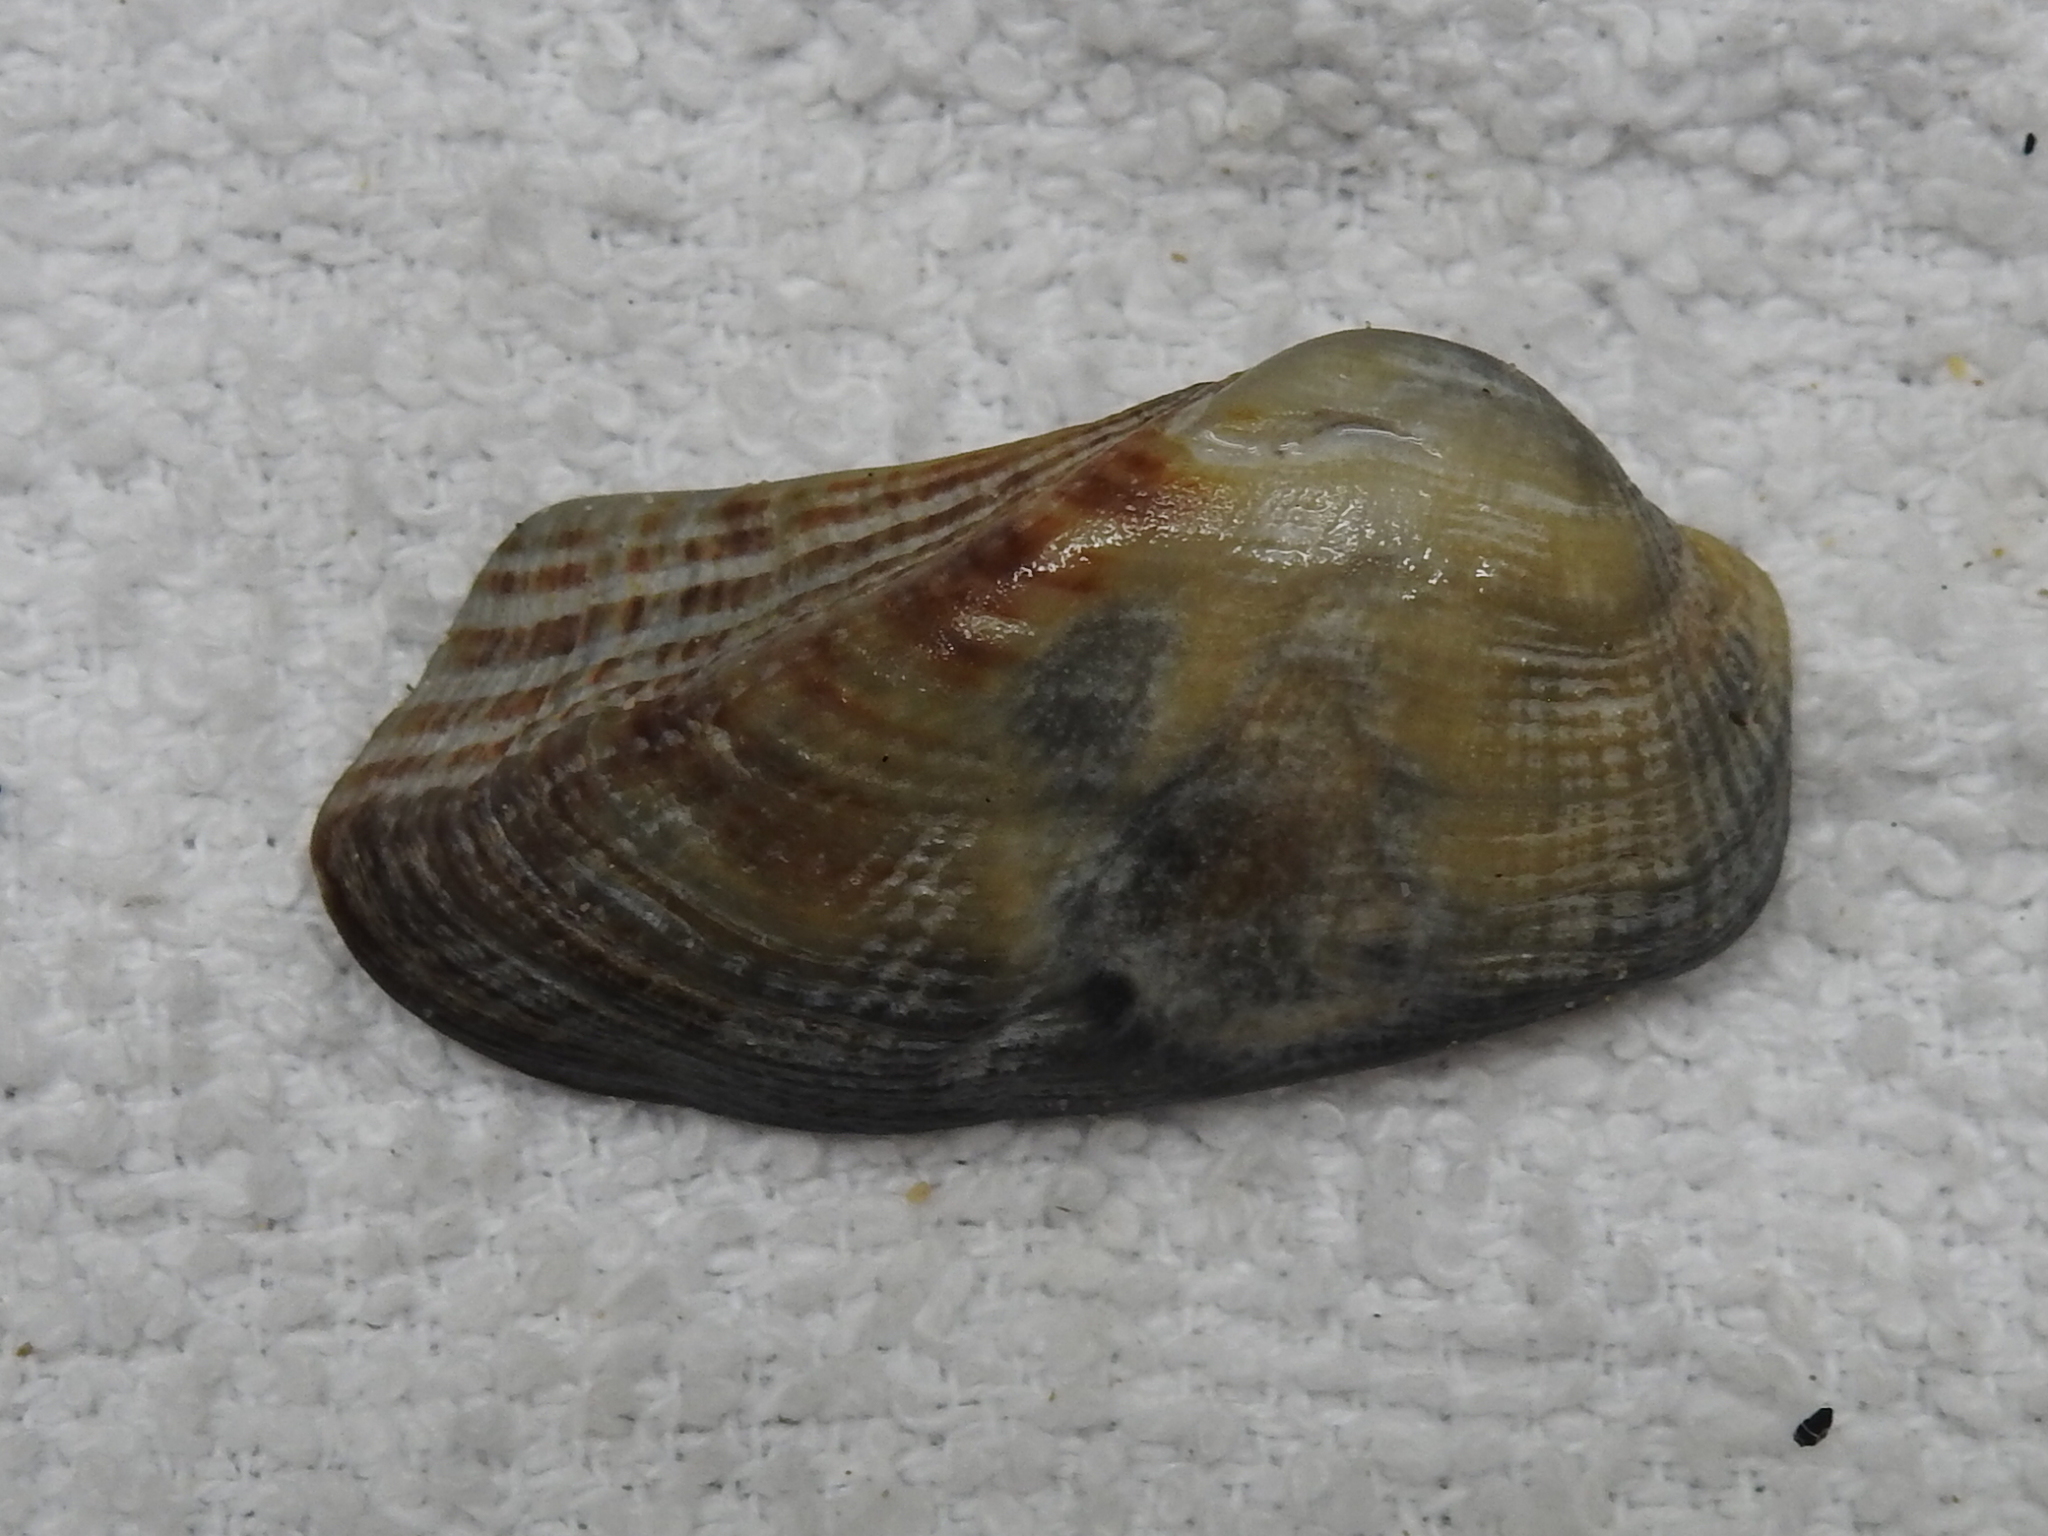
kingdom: Animalia
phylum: Mollusca
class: Bivalvia
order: Arcida
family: Arcidae
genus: Lamarcka
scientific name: Lamarcka imbricata
